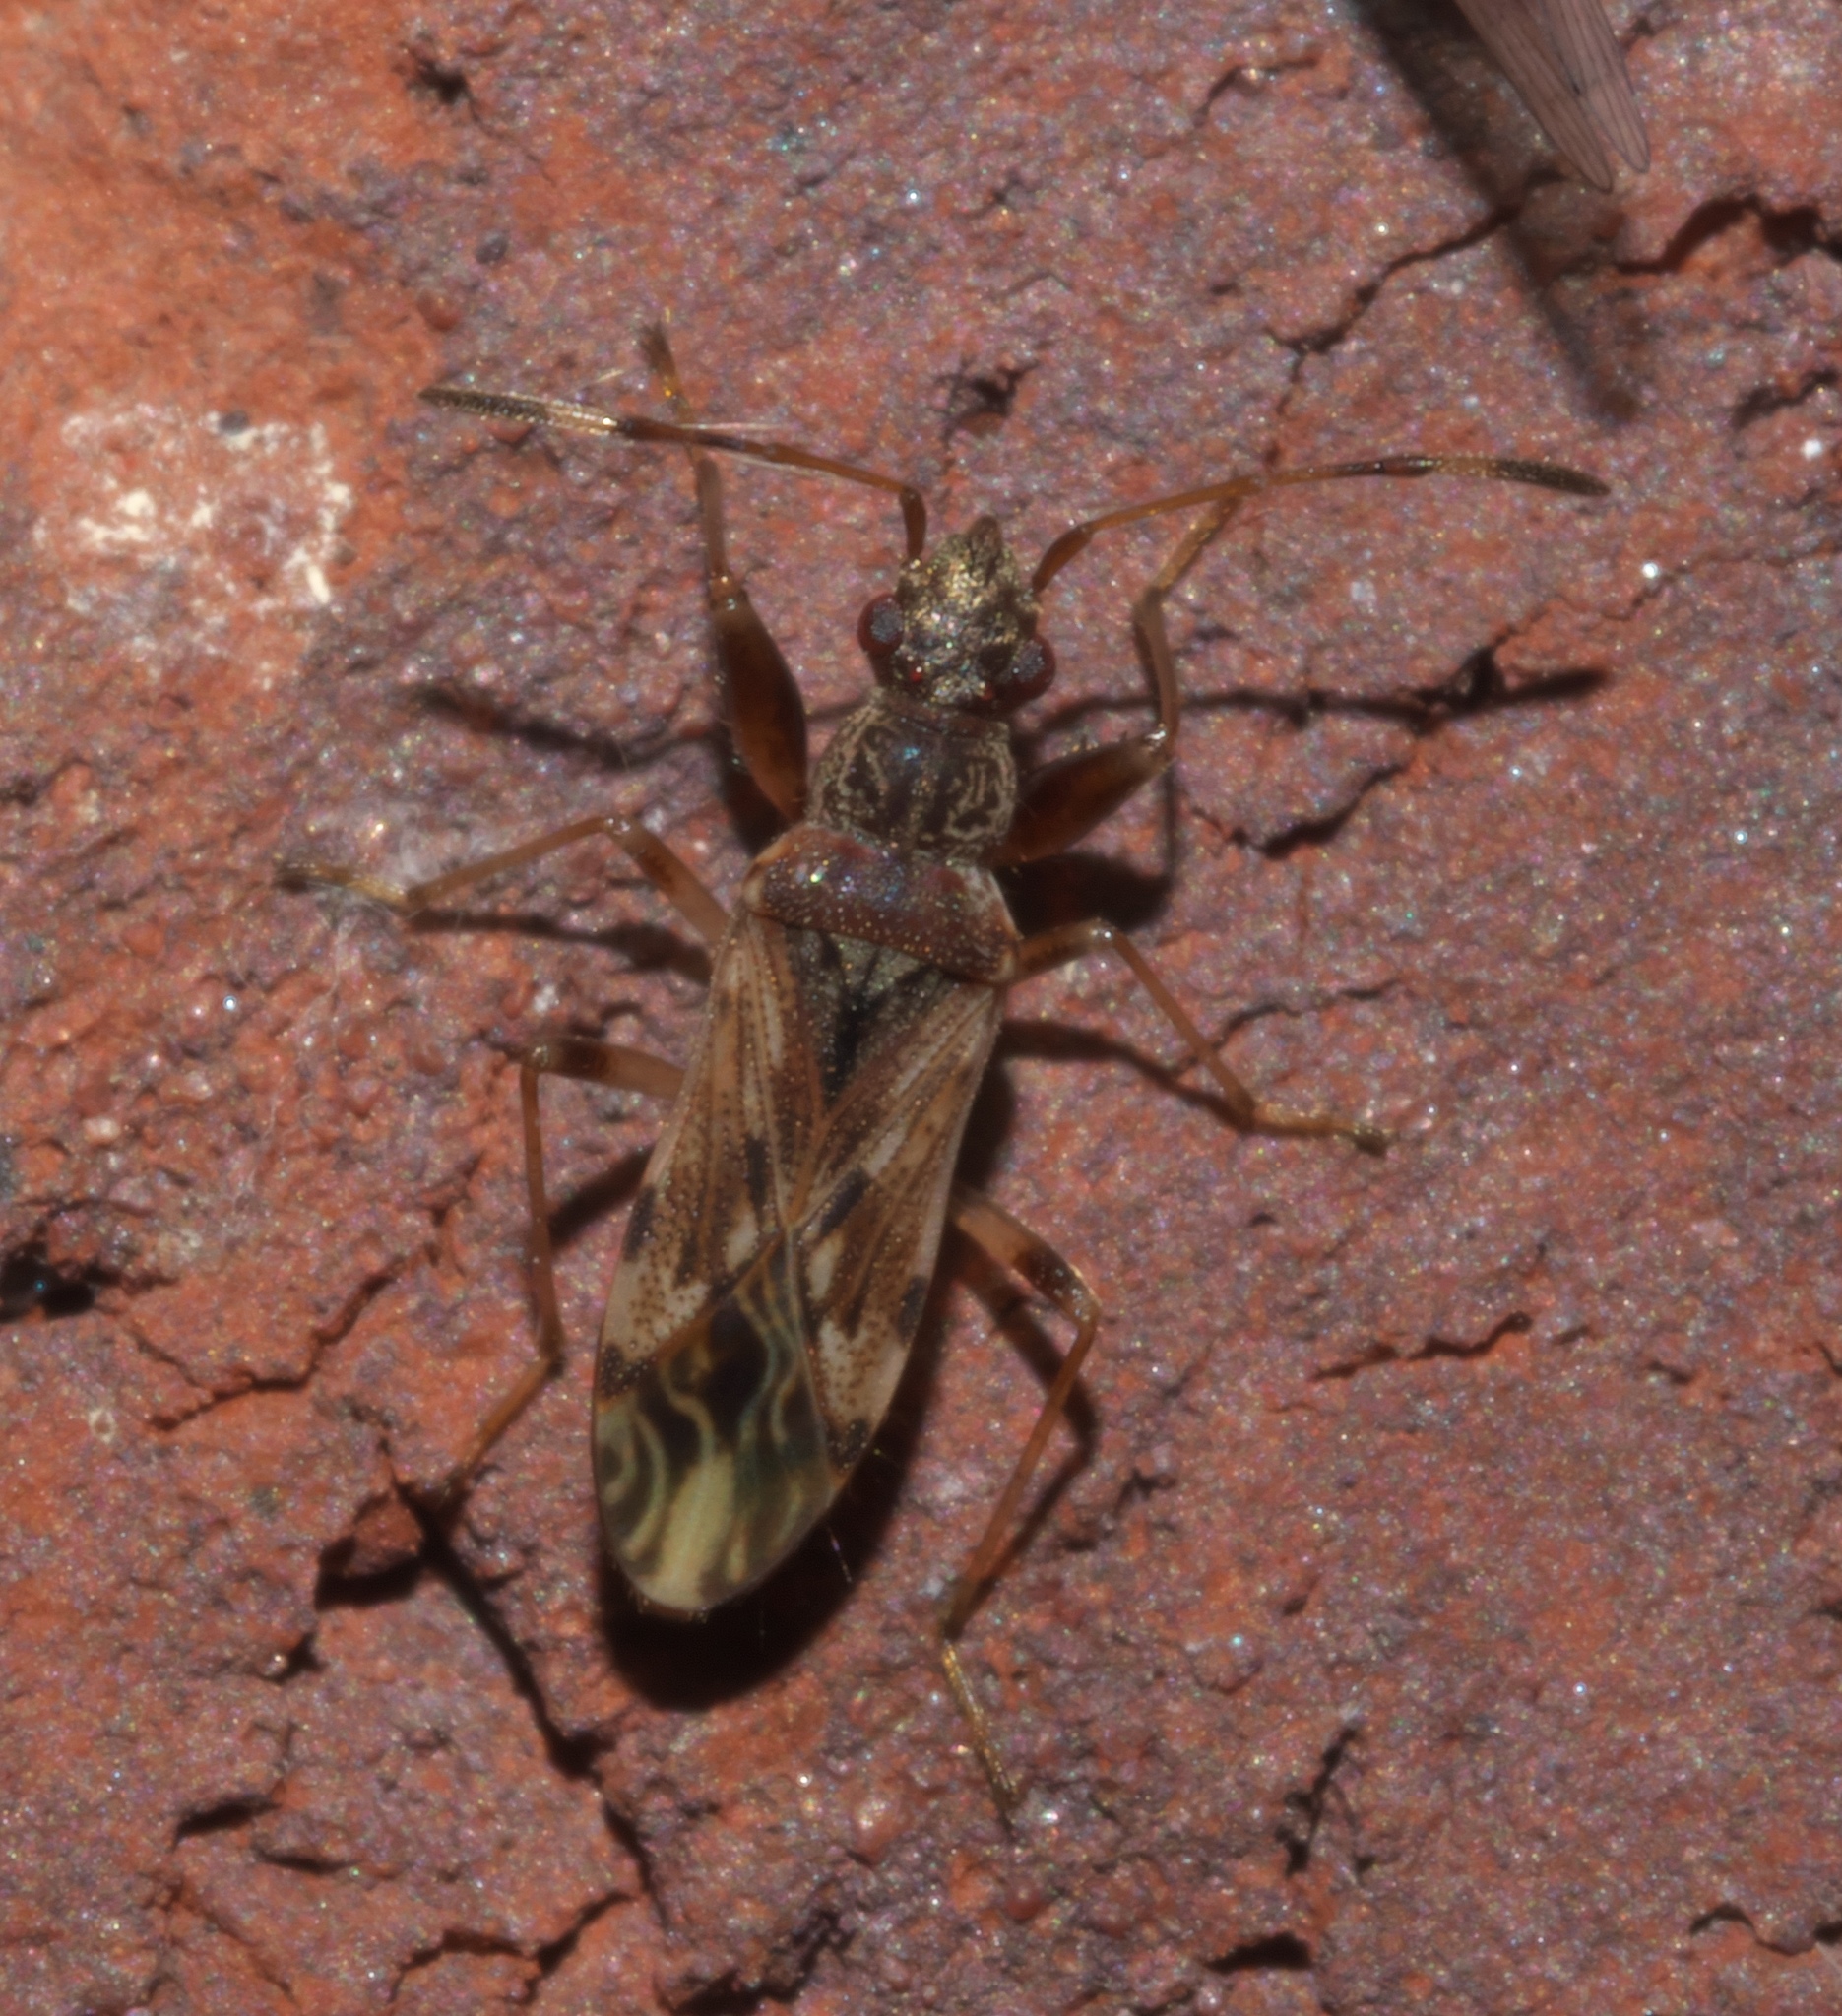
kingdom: Animalia
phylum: Arthropoda
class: Insecta
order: Hemiptera
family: Rhyparochromidae
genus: Neopamera
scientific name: Neopamera albocincta
